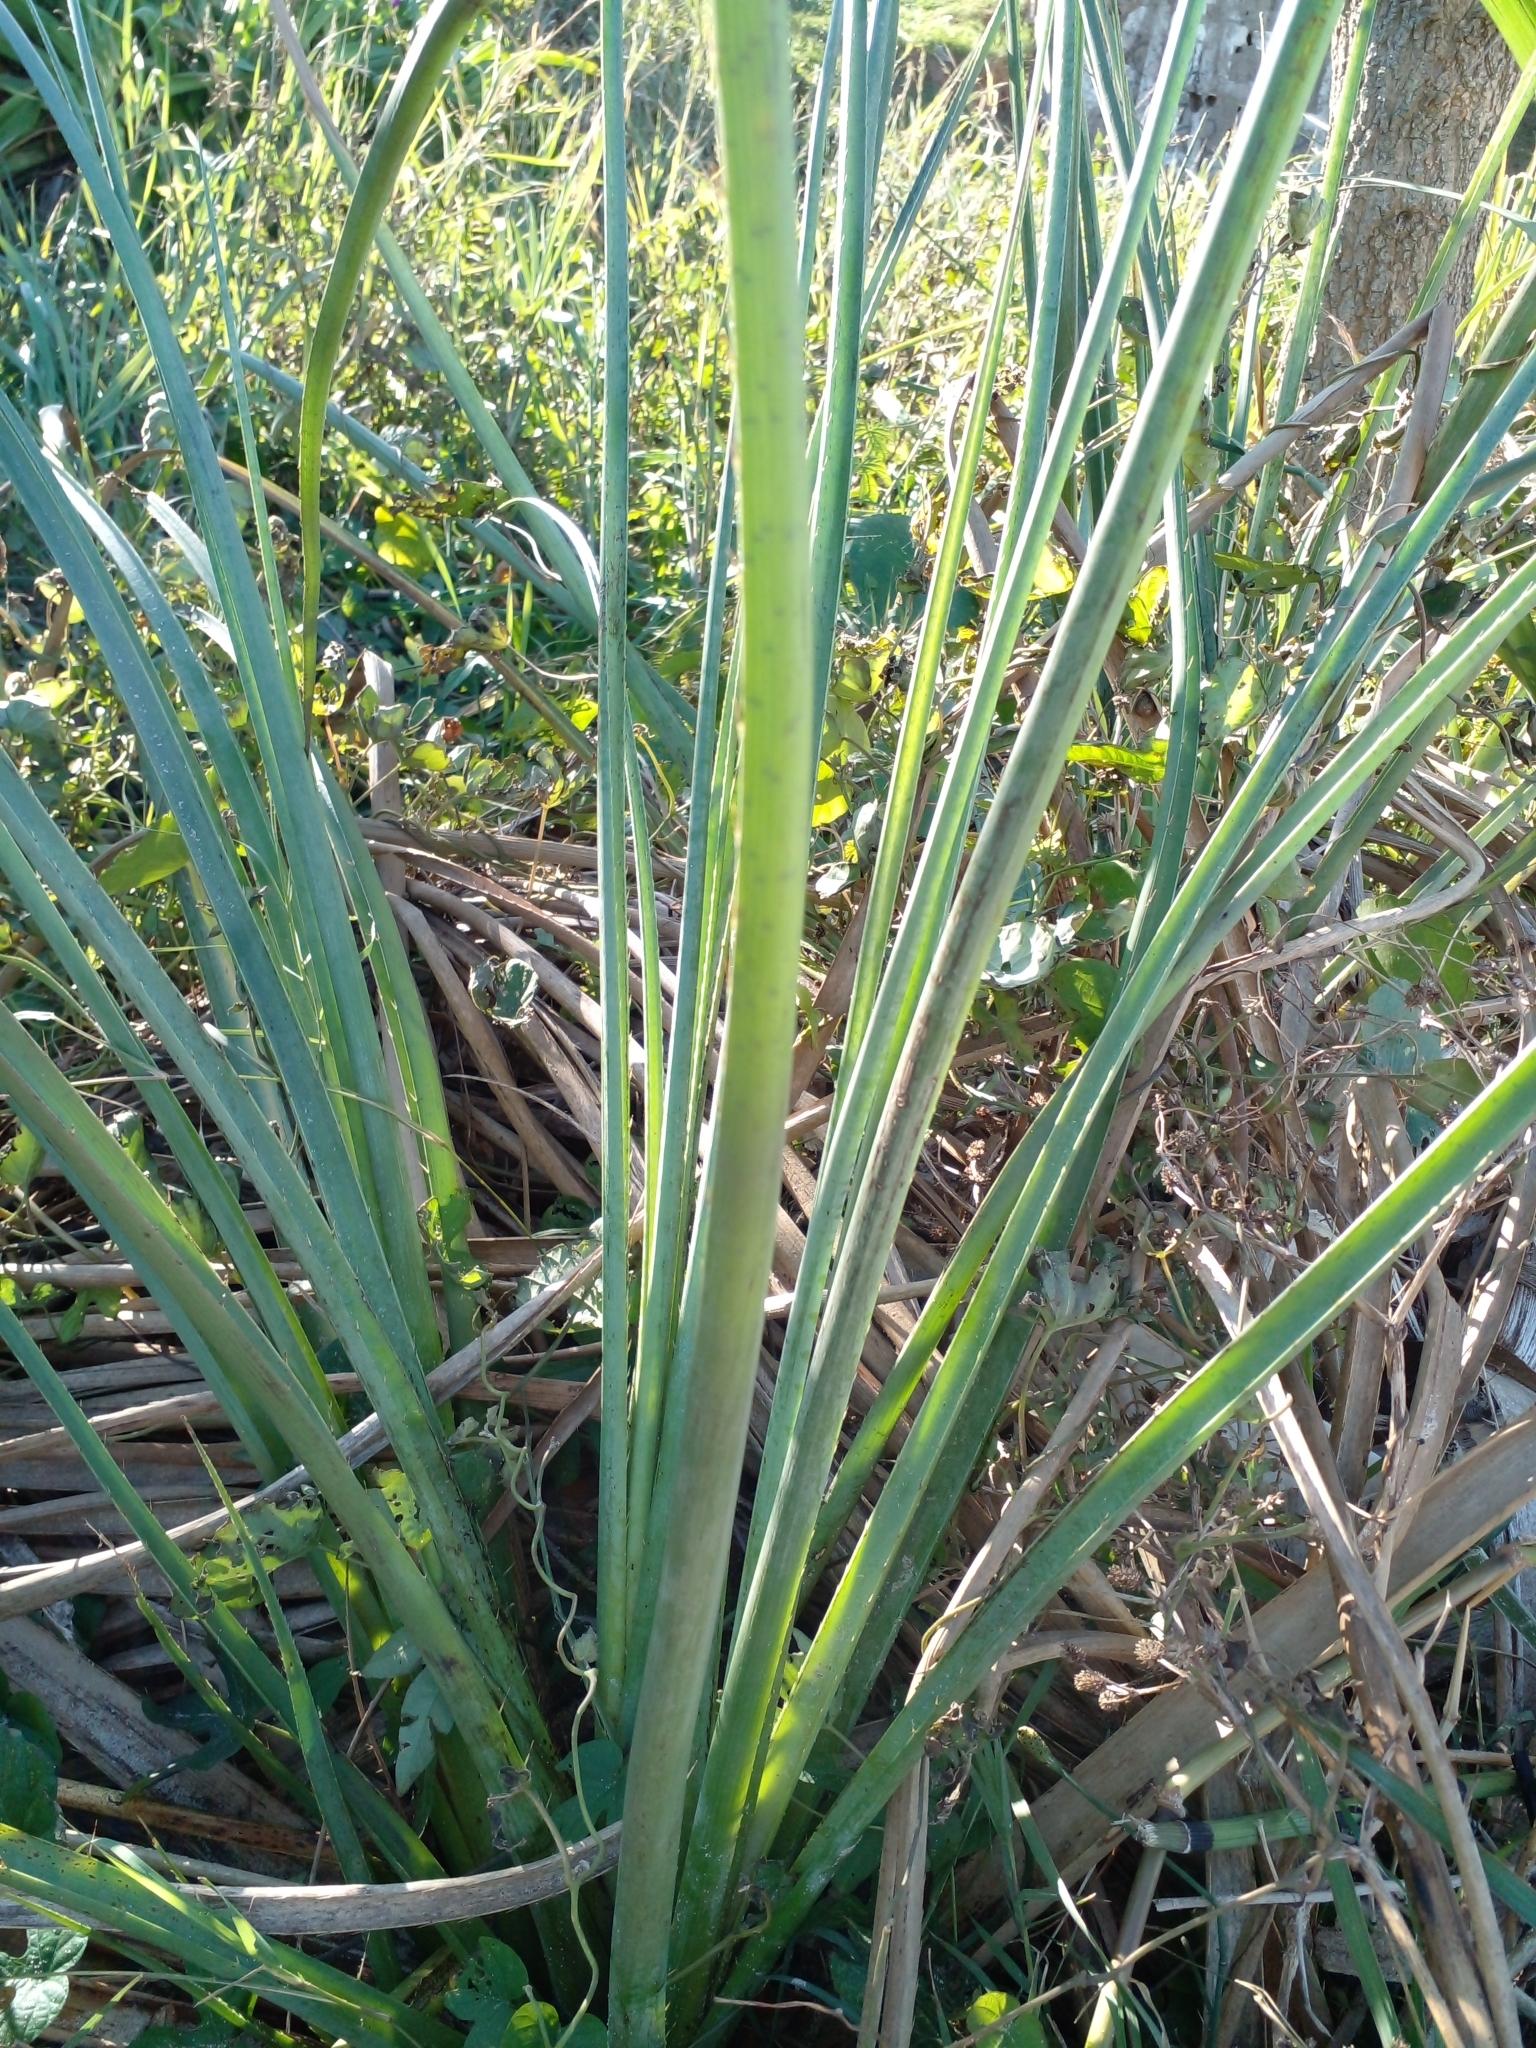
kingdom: Plantae
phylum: Tracheophyta
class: Magnoliopsida
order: Apiales
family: Apiaceae
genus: Eryngium
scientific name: Eryngium pandanifolium
